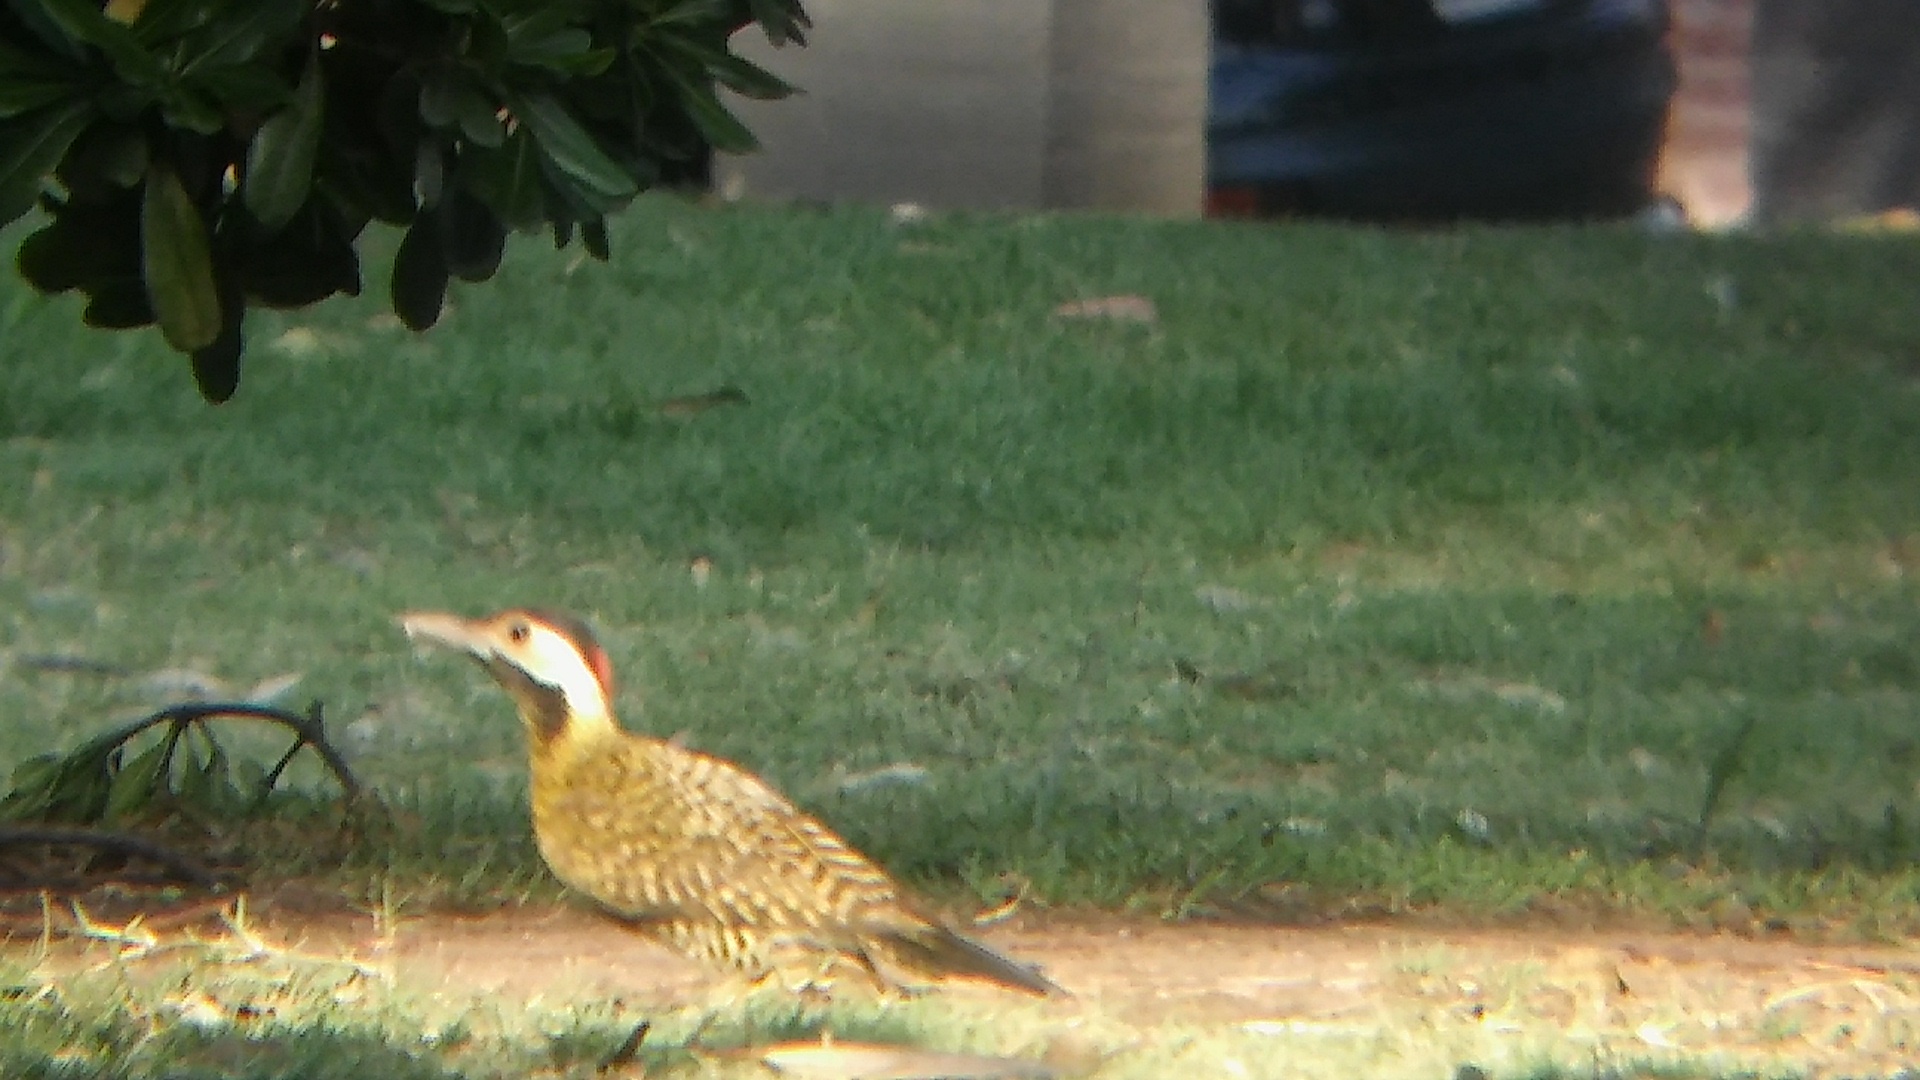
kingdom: Animalia
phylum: Chordata
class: Aves
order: Piciformes
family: Picidae
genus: Colaptes
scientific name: Colaptes melanochloros
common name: Green-barred woodpecker
